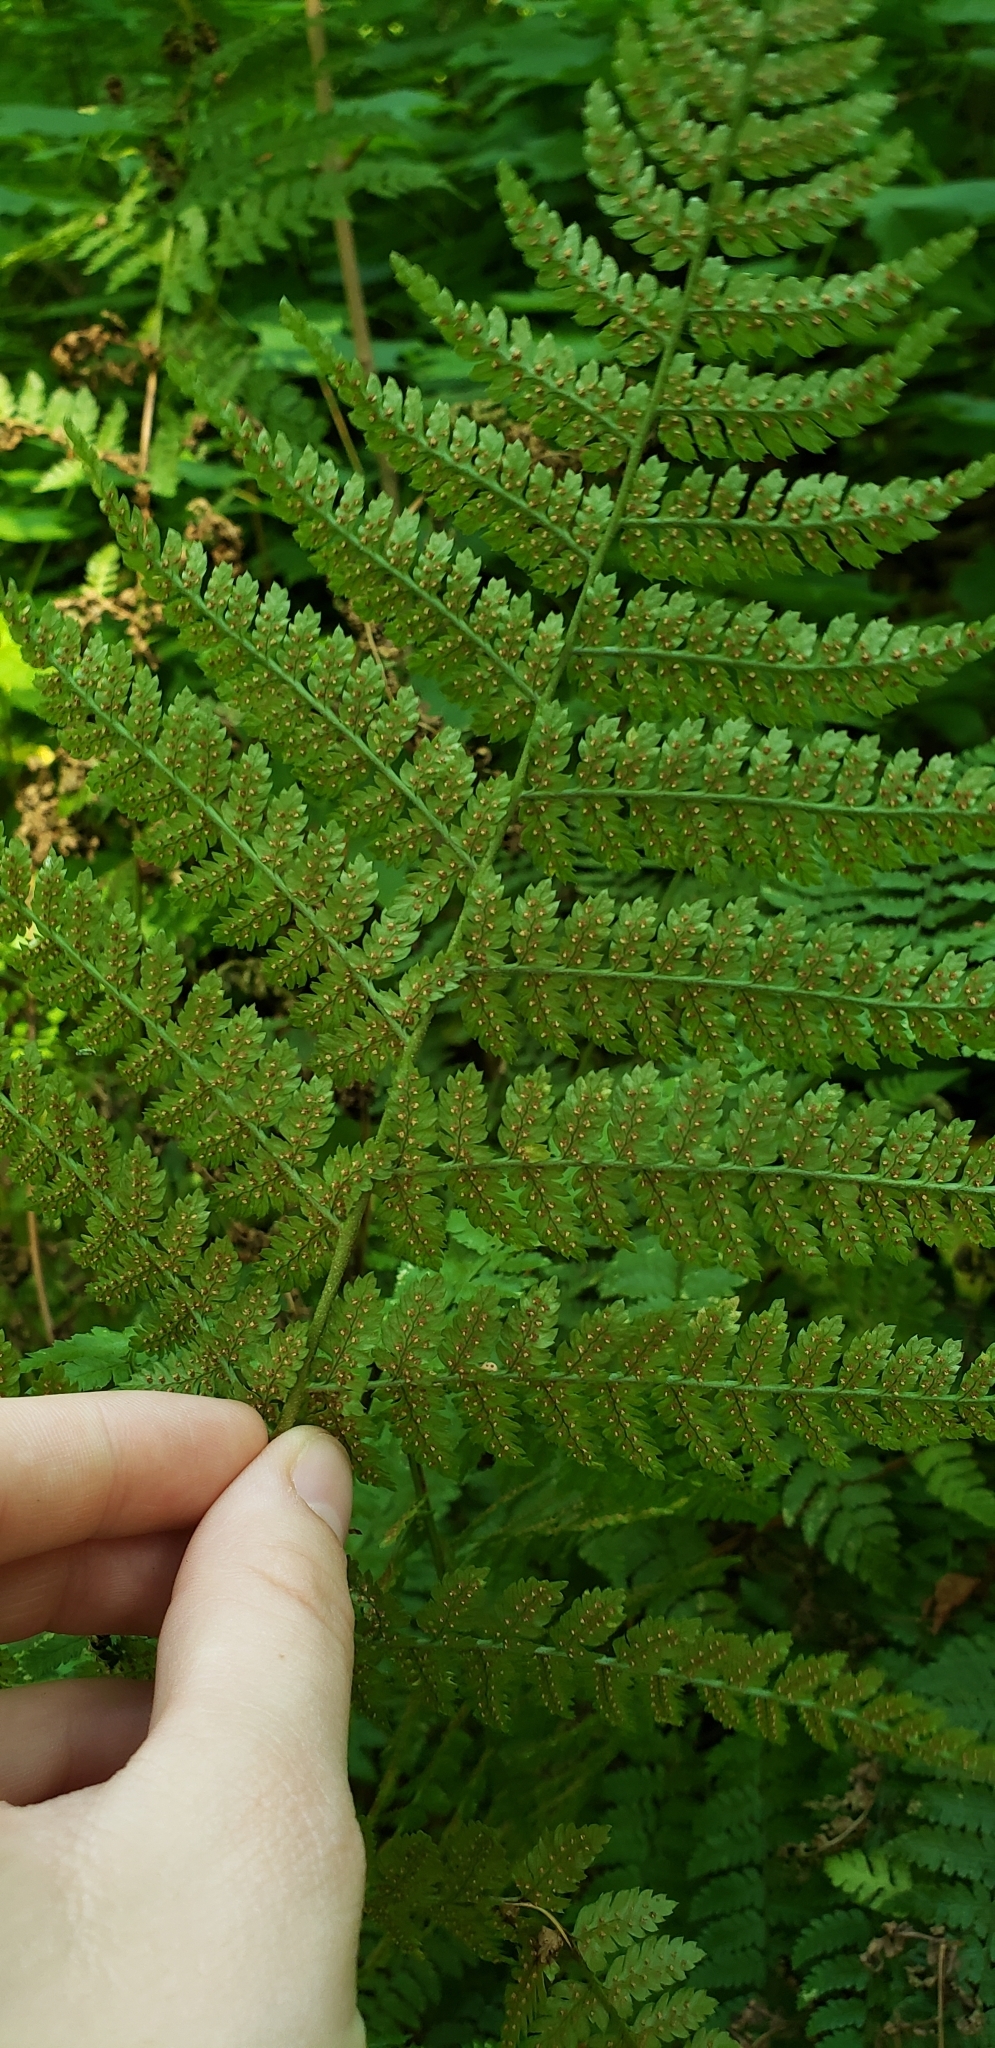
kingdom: Plantae
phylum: Tracheophyta
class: Polypodiopsida
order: Polypodiales
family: Dryopteridaceae
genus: Dryopteris
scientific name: Dryopteris intermedia
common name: Evergreen wood fern
